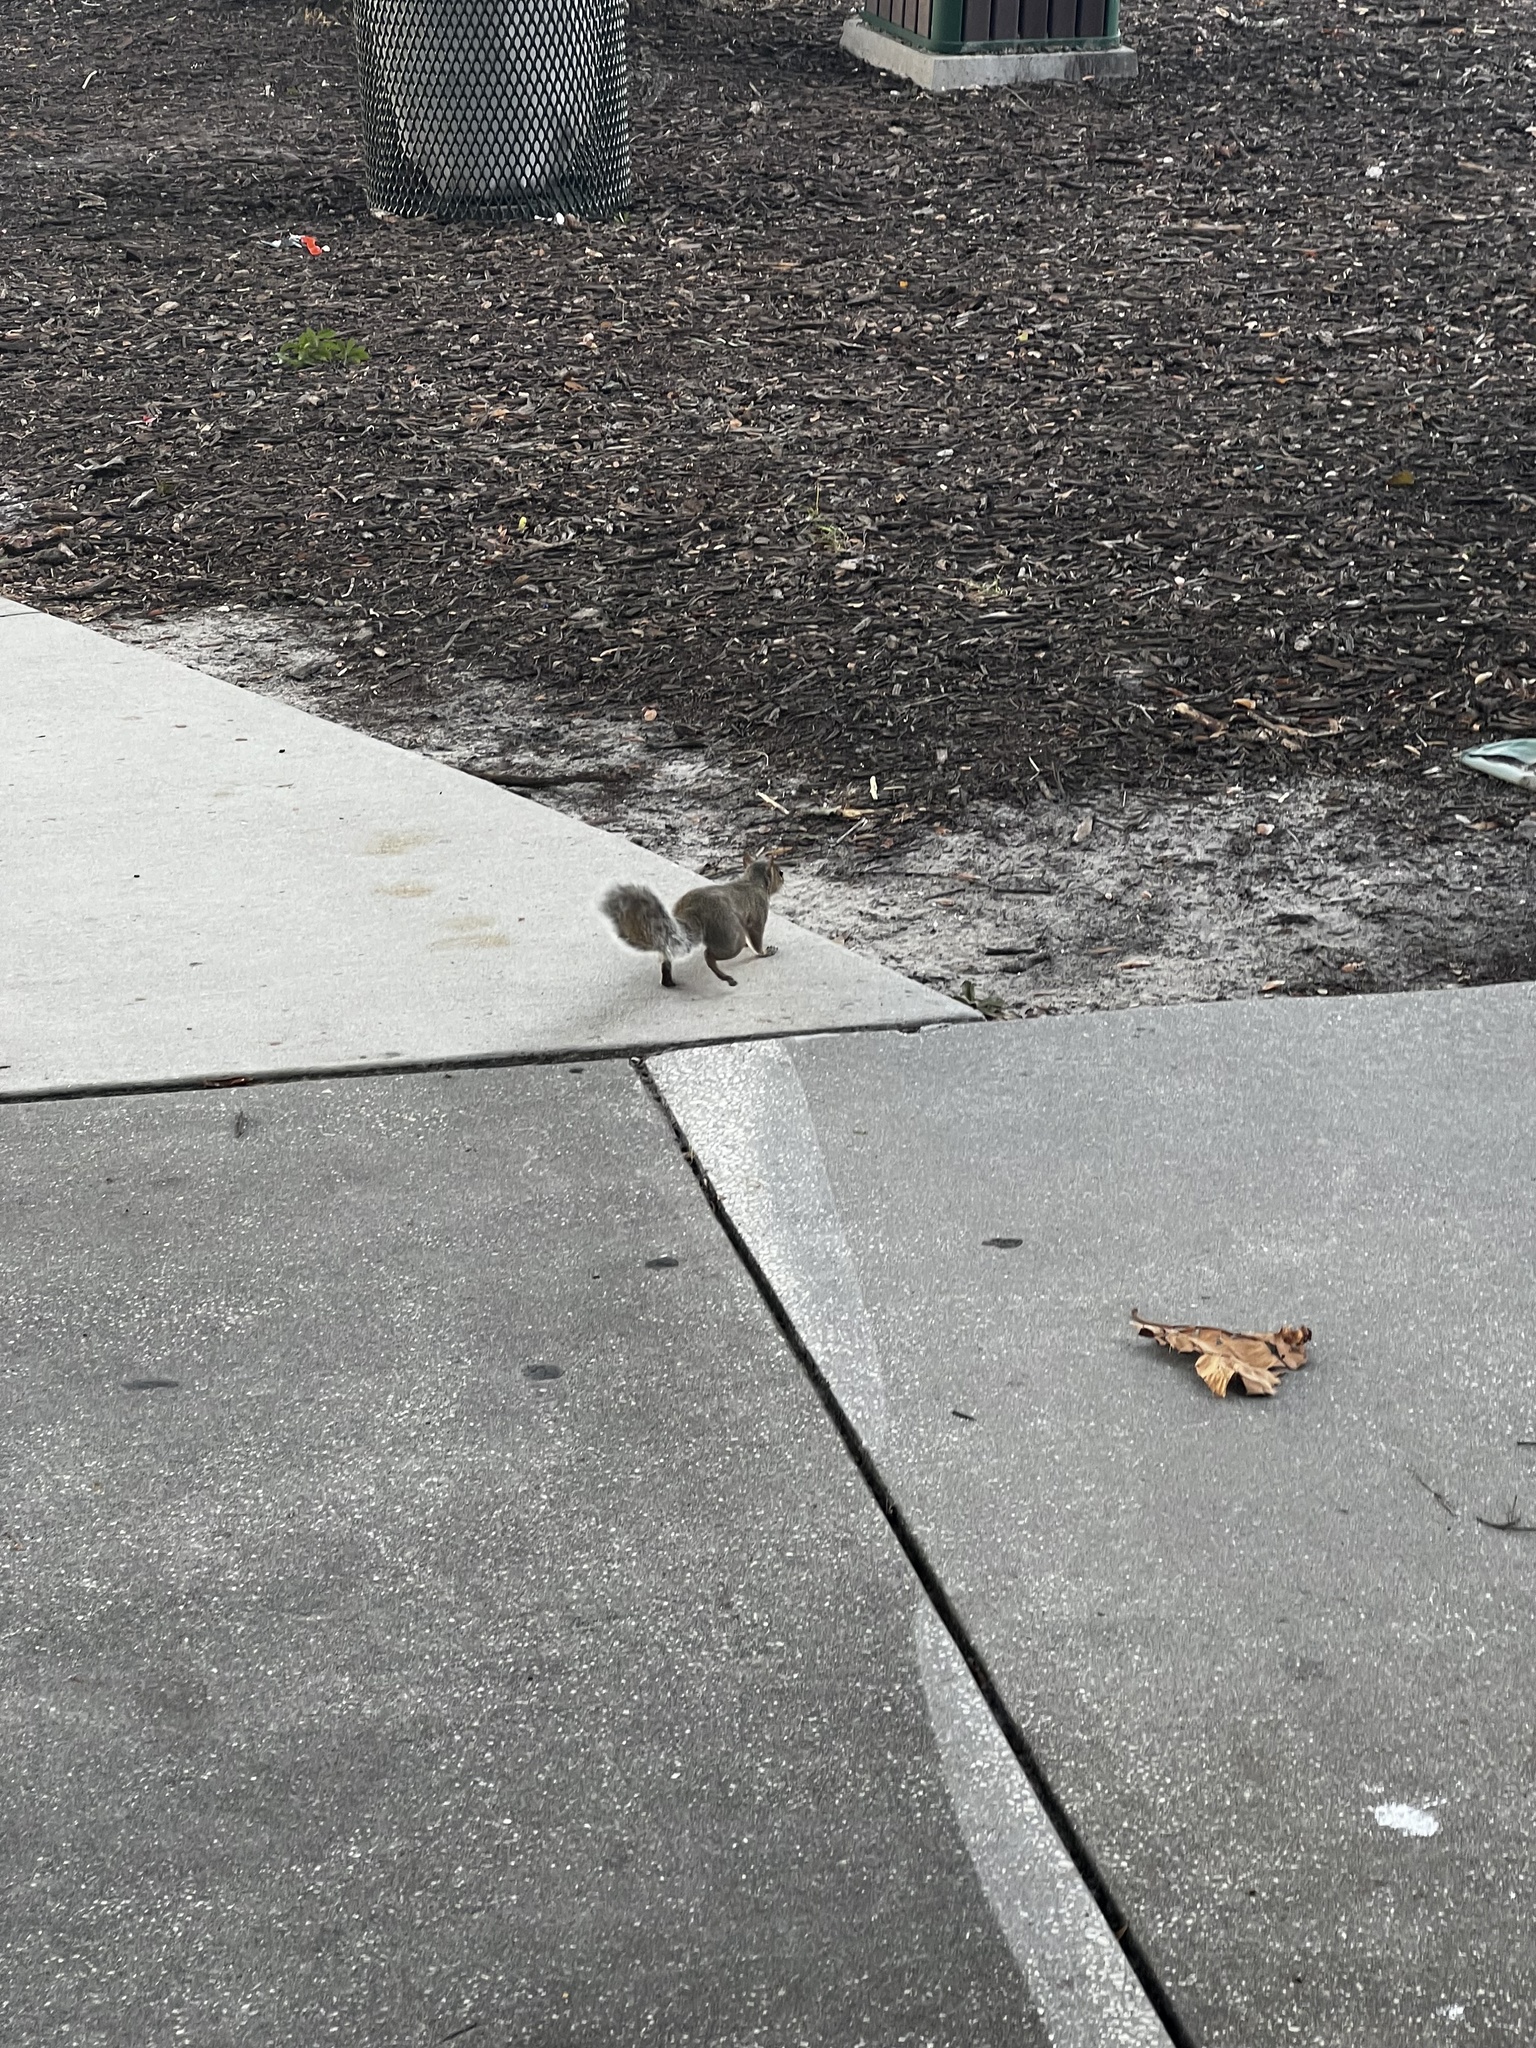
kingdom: Animalia
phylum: Chordata
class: Mammalia
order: Rodentia
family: Sciuridae
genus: Sciurus
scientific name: Sciurus carolinensis
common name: Eastern gray squirrel
